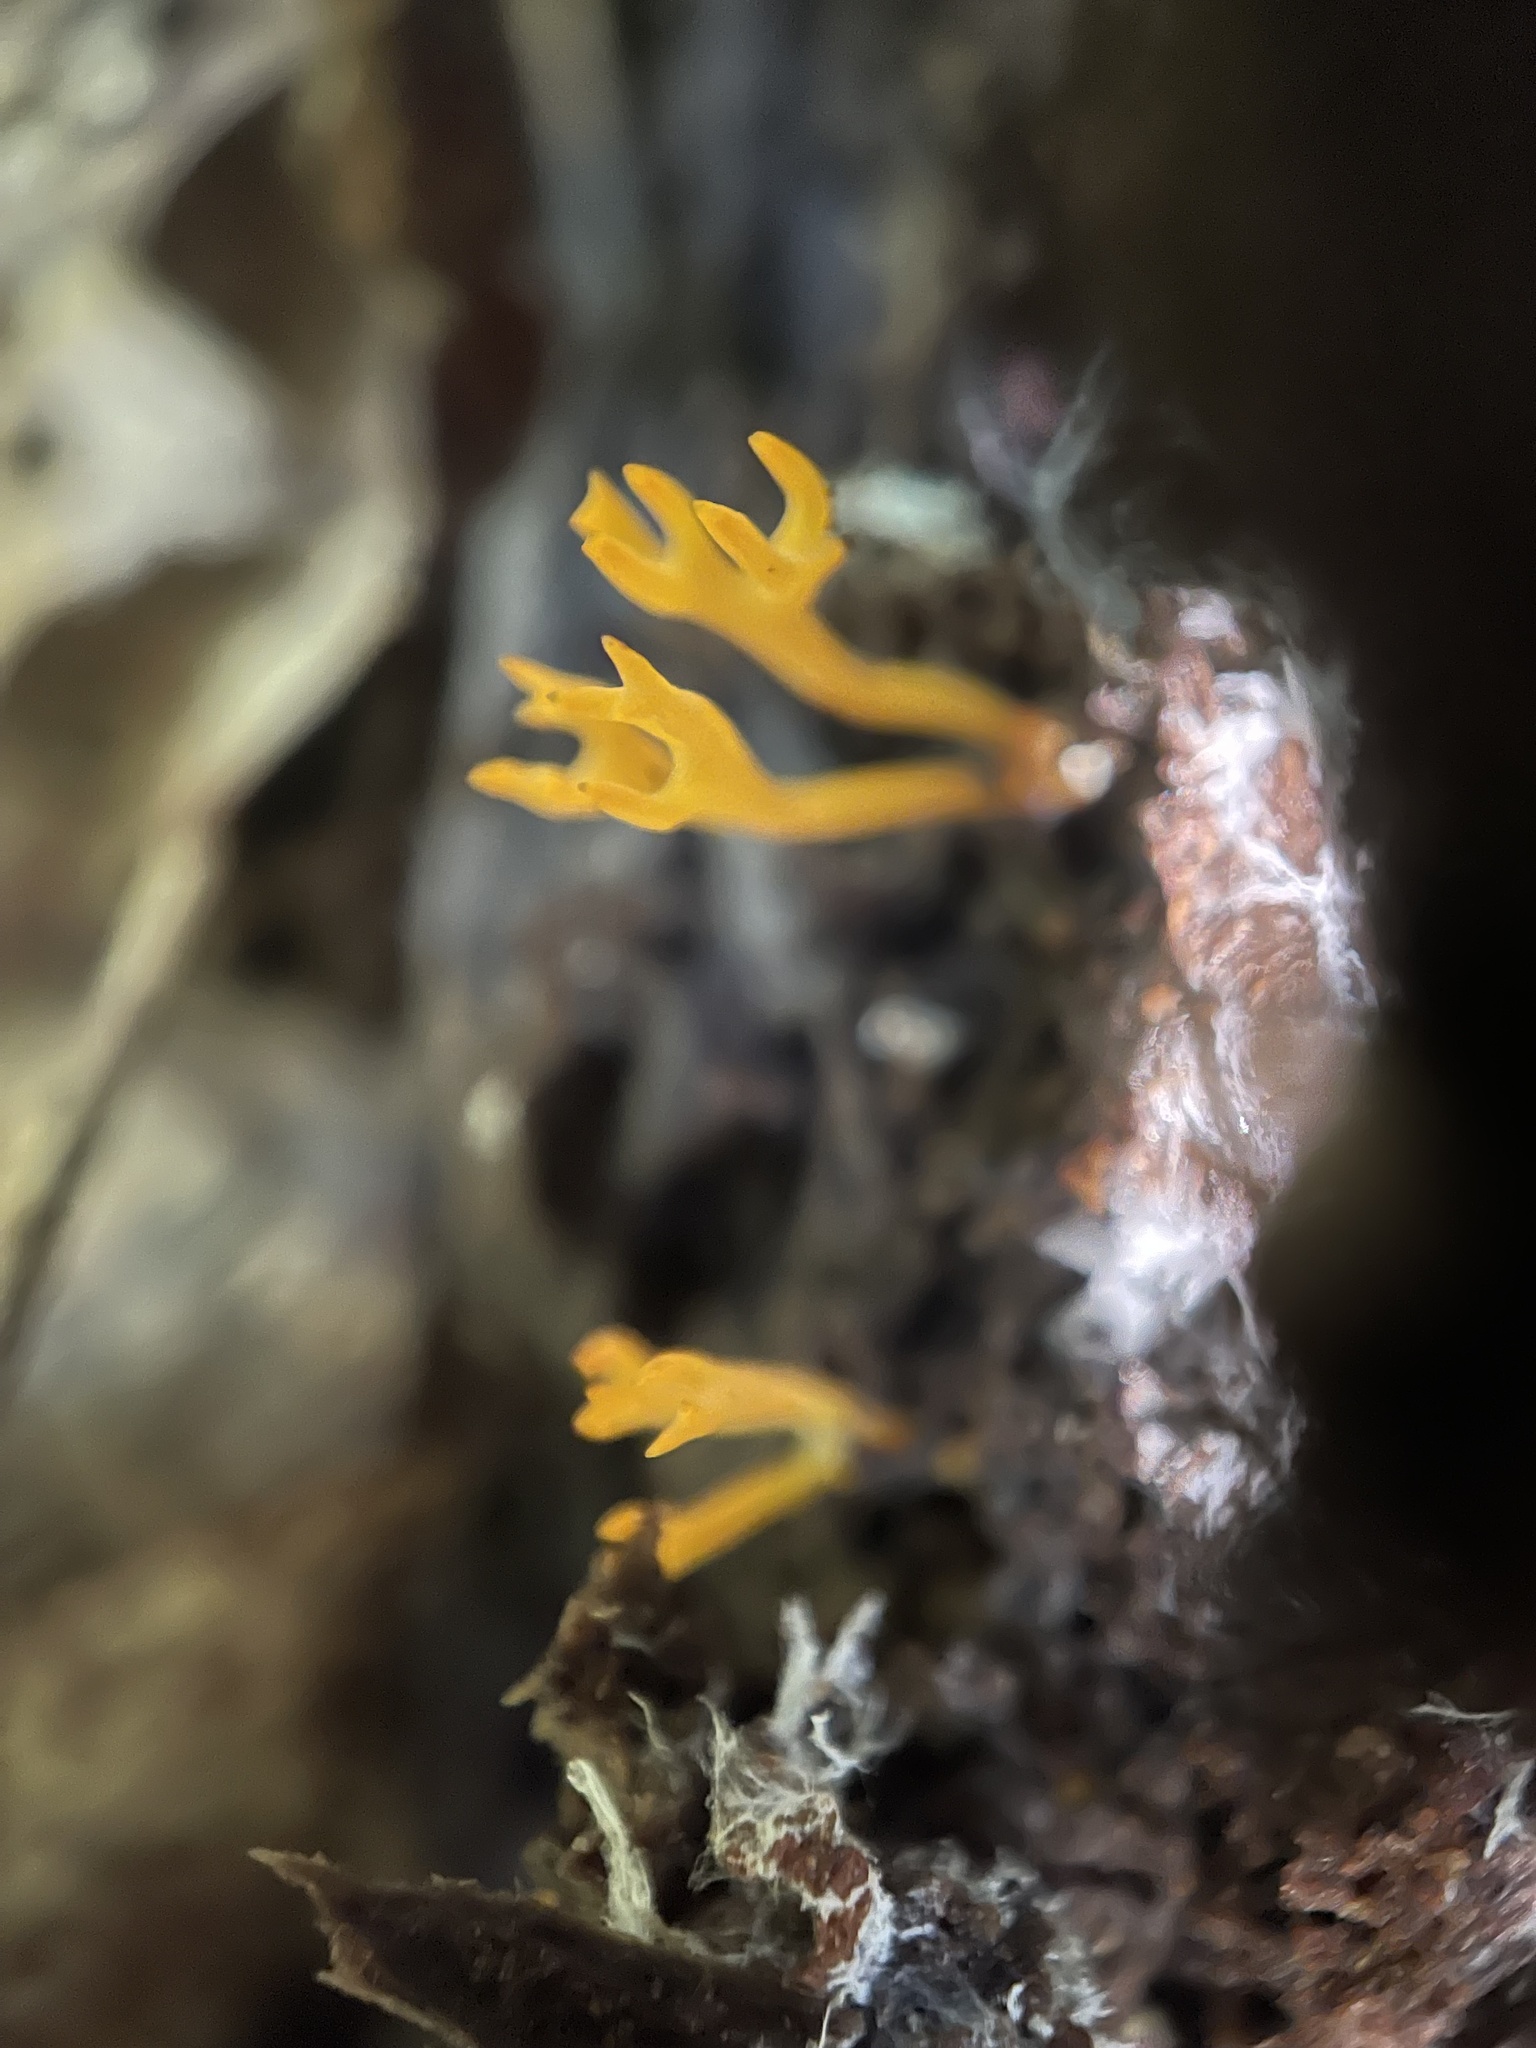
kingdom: Fungi
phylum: Basidiomycota
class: Dacrymycetes
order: Dacrymycetales
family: Dacrymycetaceae
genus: Calocera
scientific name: Calocera viscosa
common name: Yellow stagshorn
